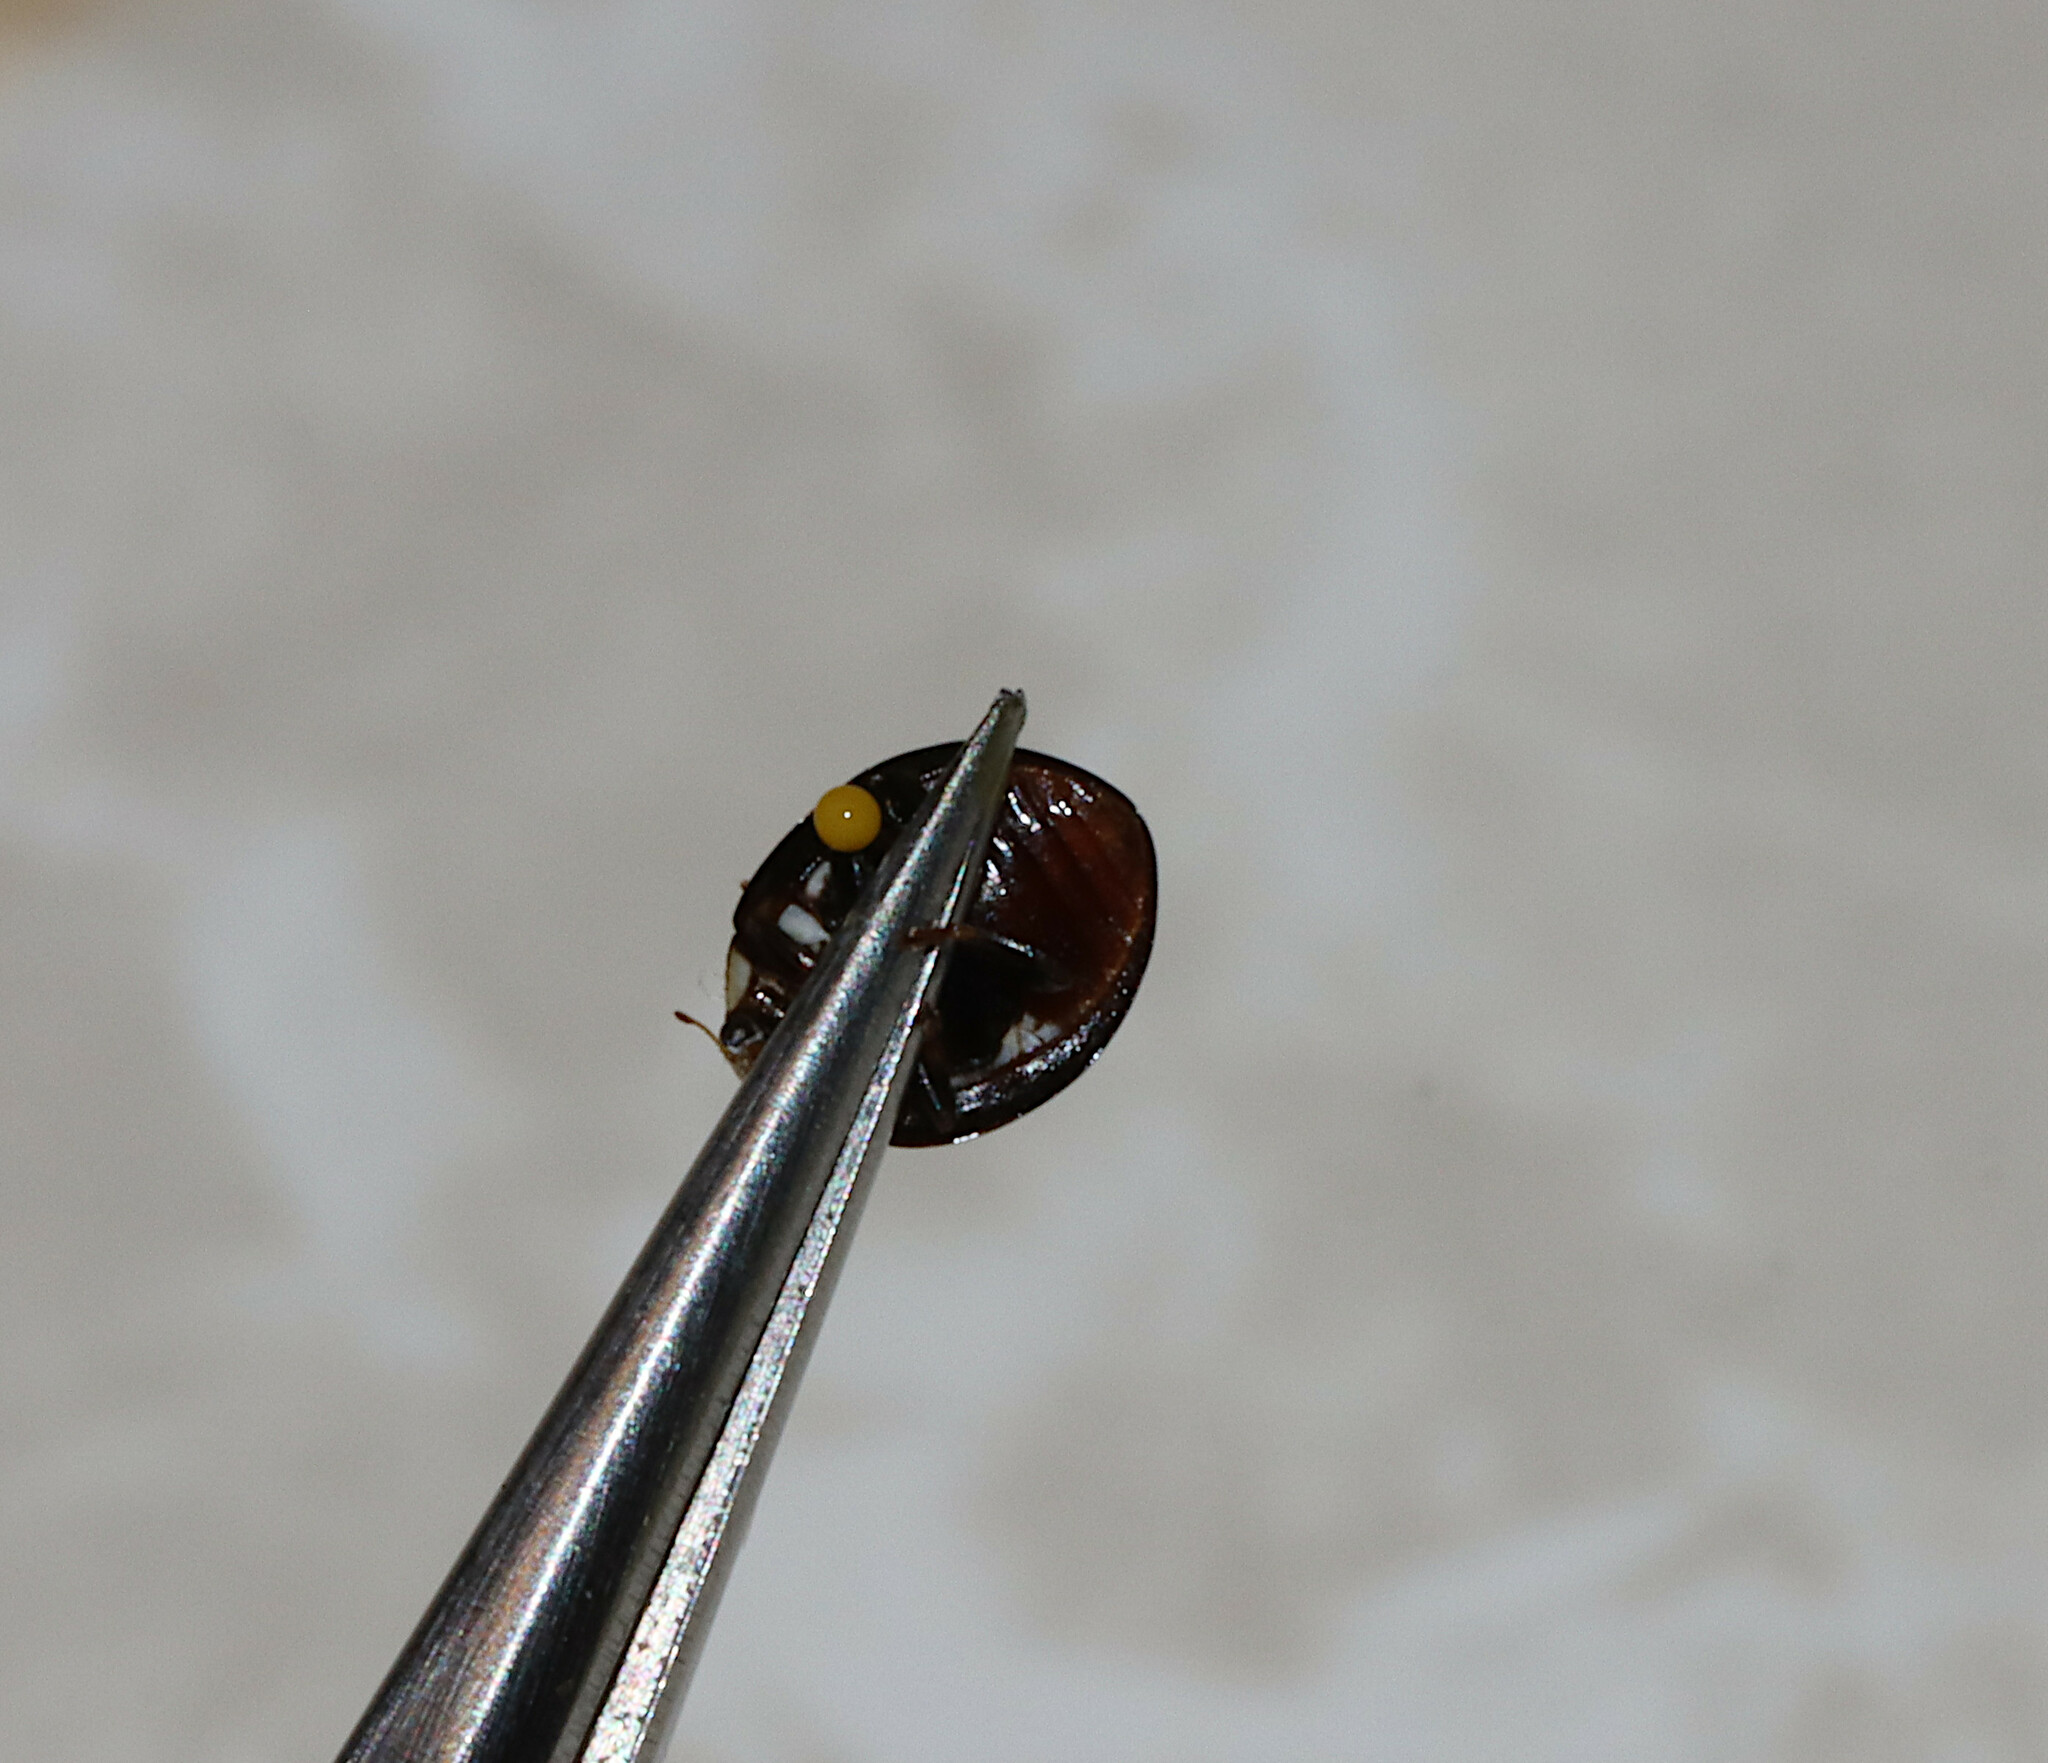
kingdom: Animalia
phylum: Arthropoda
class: Insecta
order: Coleoptera
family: Coccinellidae
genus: Olla
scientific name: Olla v-nigrum
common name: Ashy gray lady beetle
